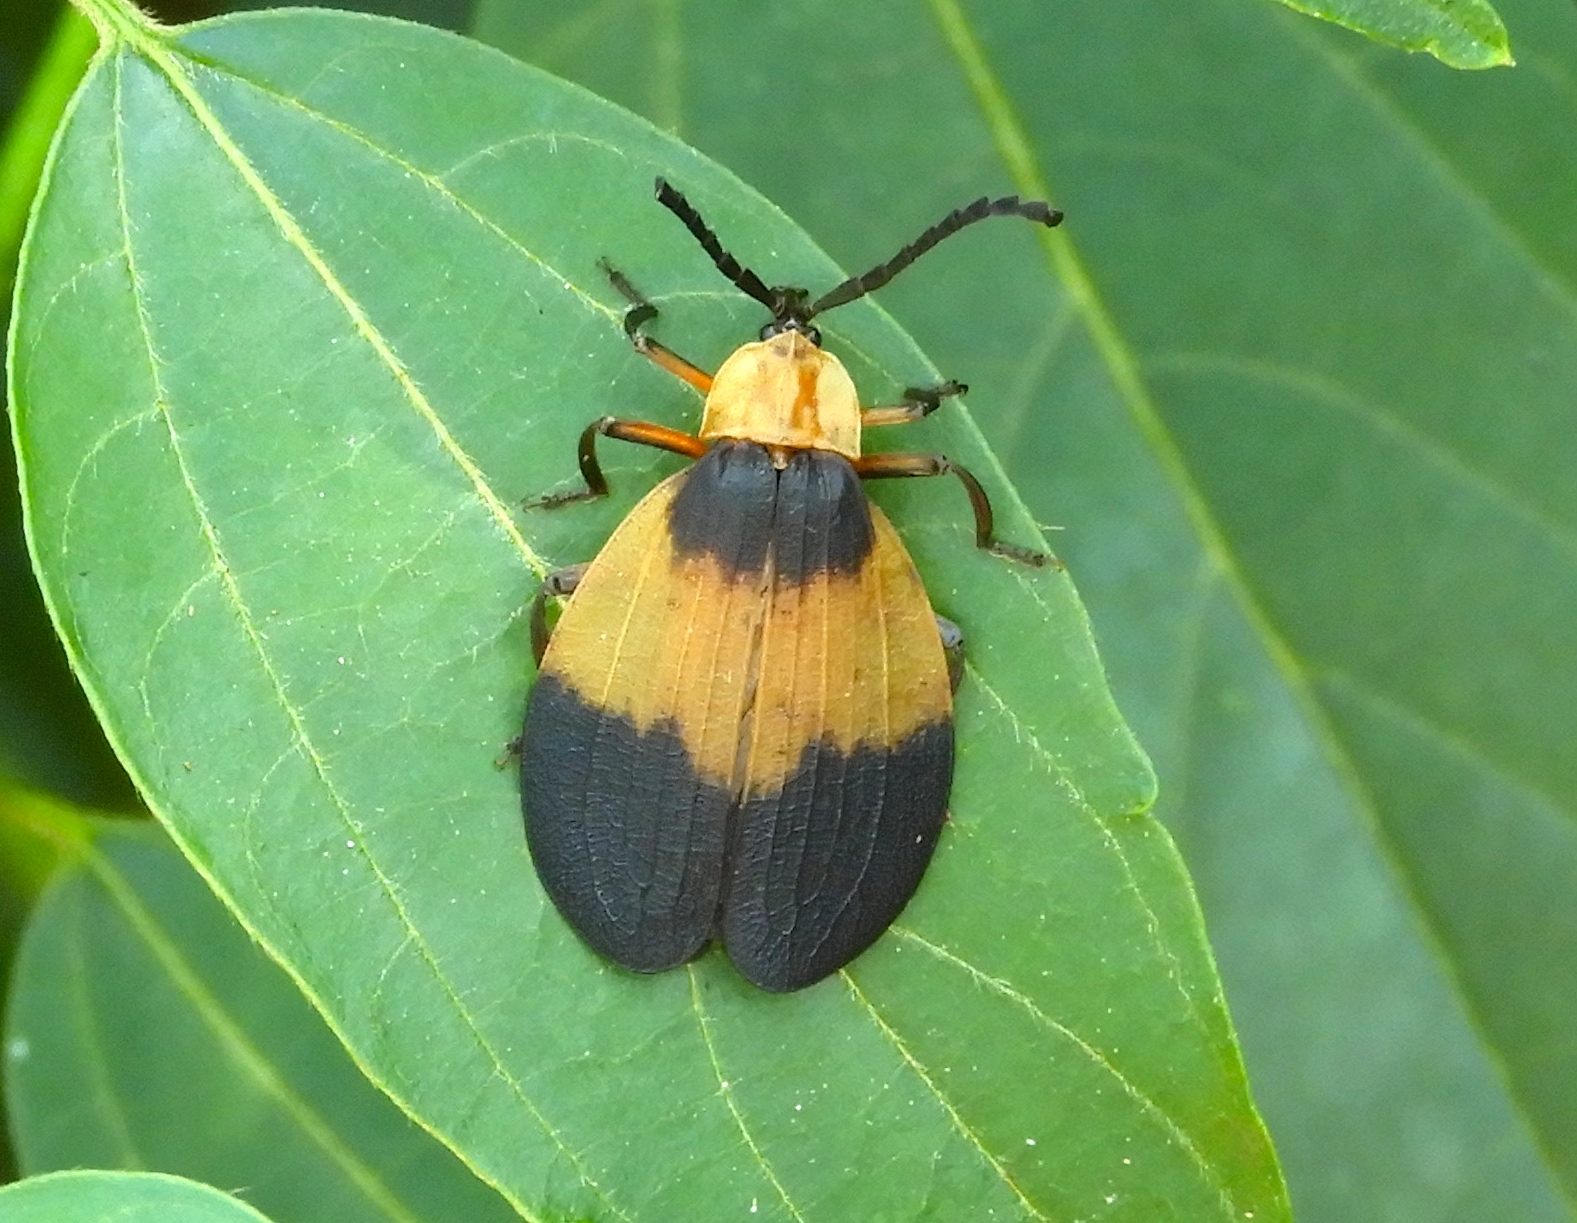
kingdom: Animalia
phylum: Arthropoda
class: Insecta
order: Coleoptera
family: Lycidae
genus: Lycus
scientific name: Lycus
